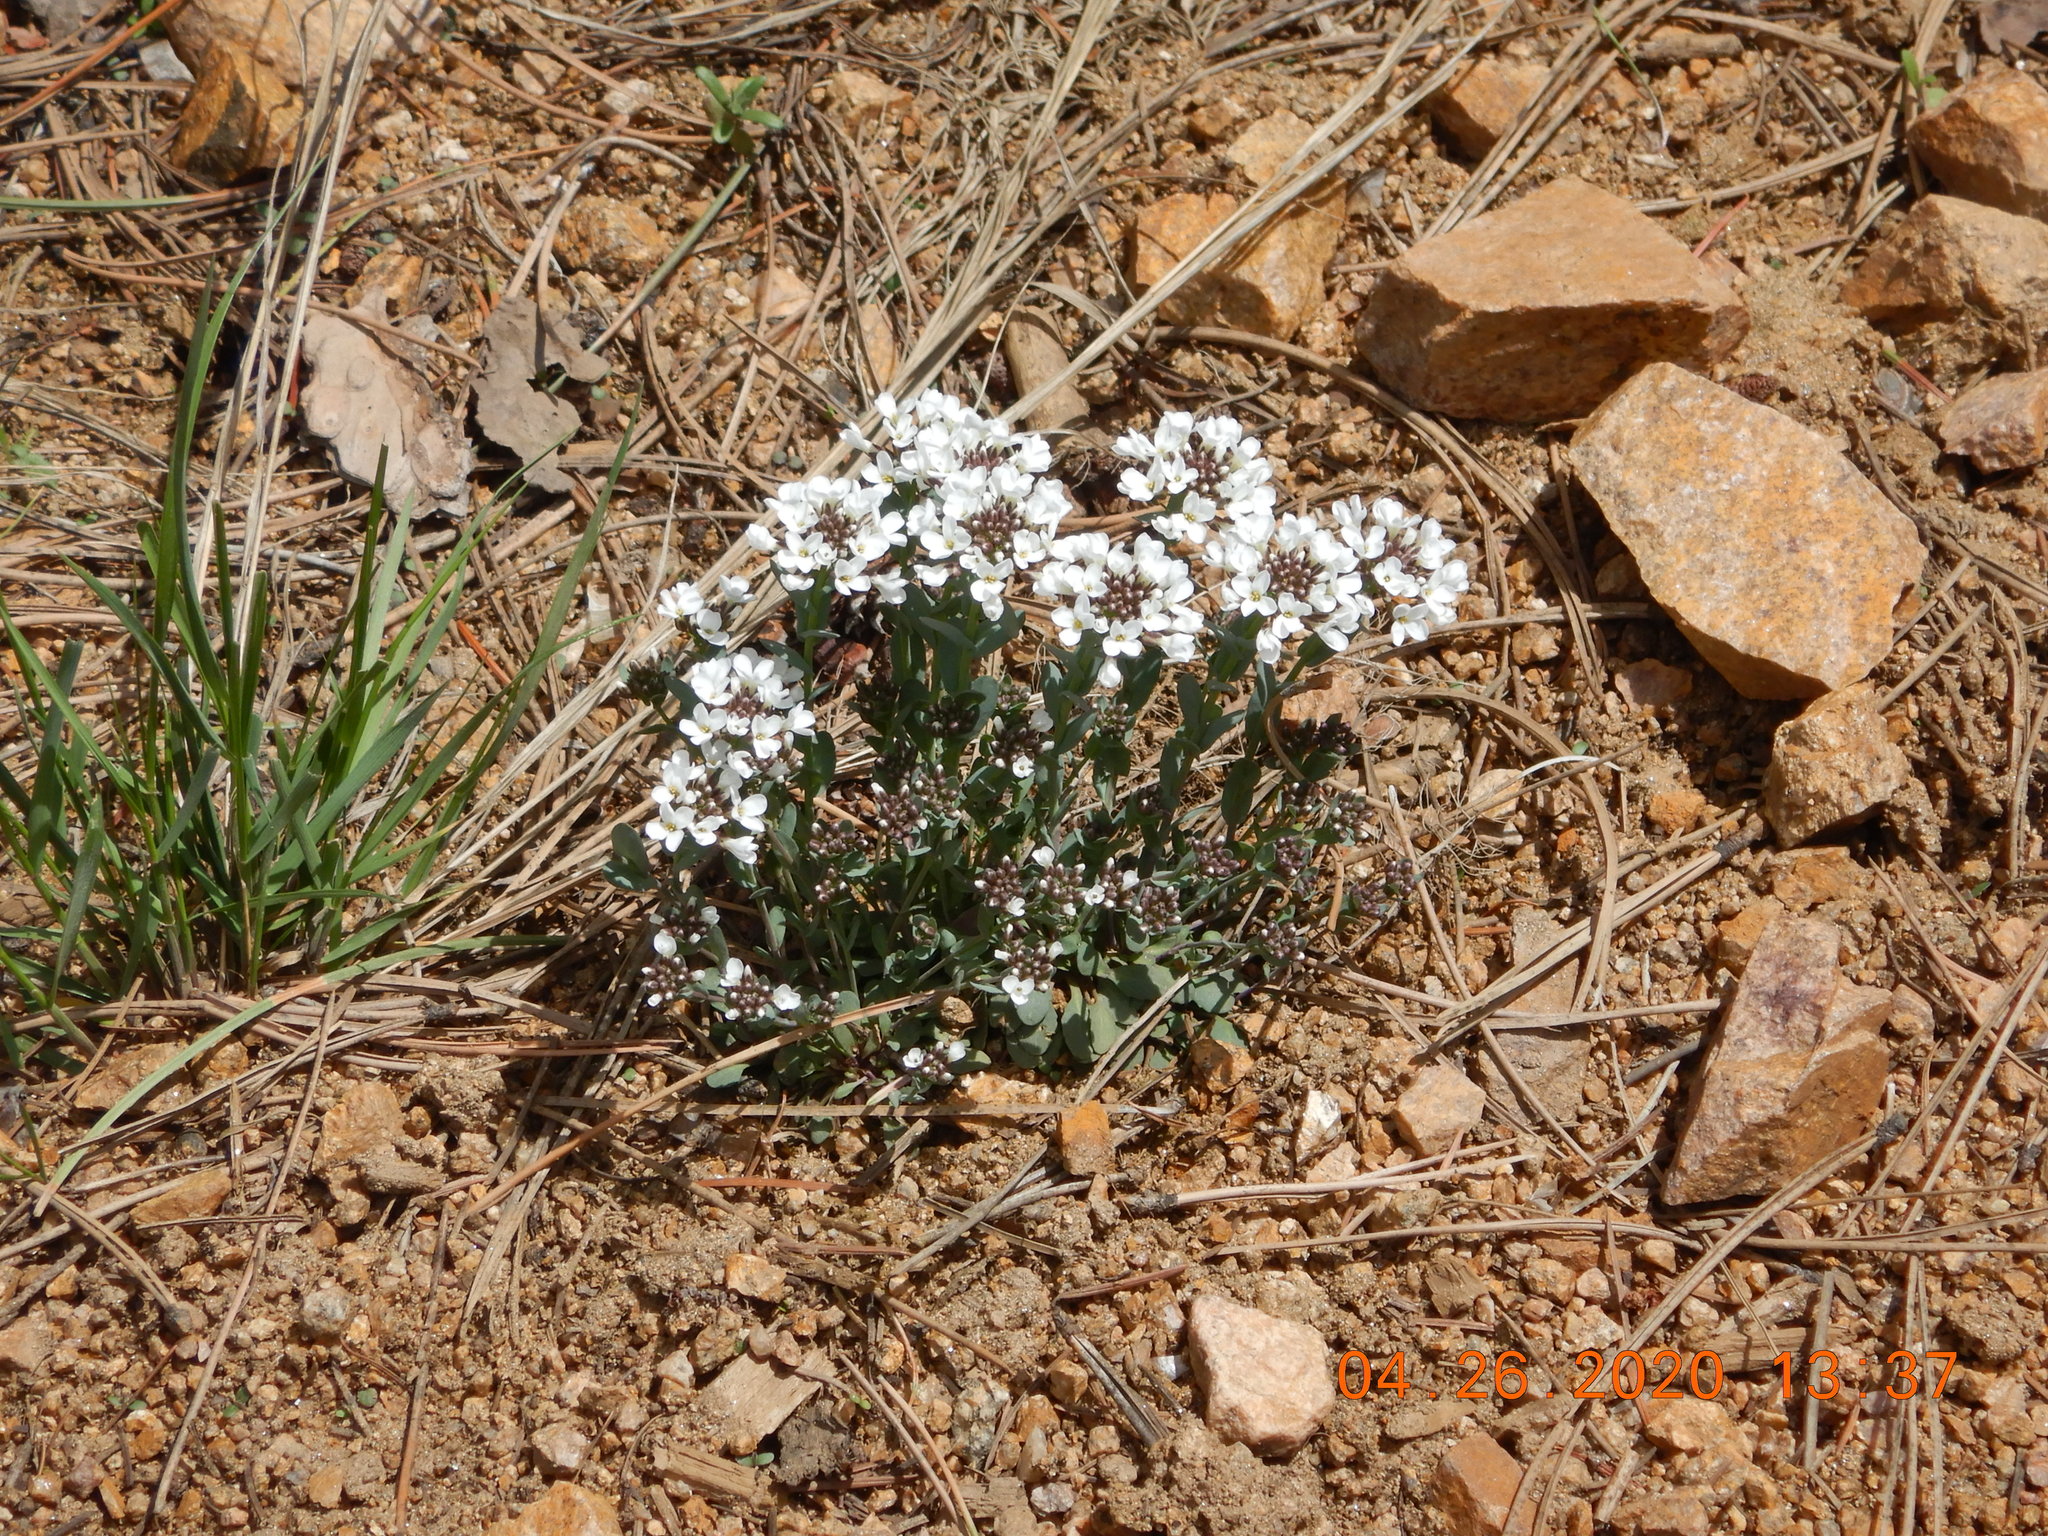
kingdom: Plantae
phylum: Tracheophyta
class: Magnoliopsida
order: Brassicales
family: Brassicaceae
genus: Noccaea
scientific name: Noccaea fendleri
